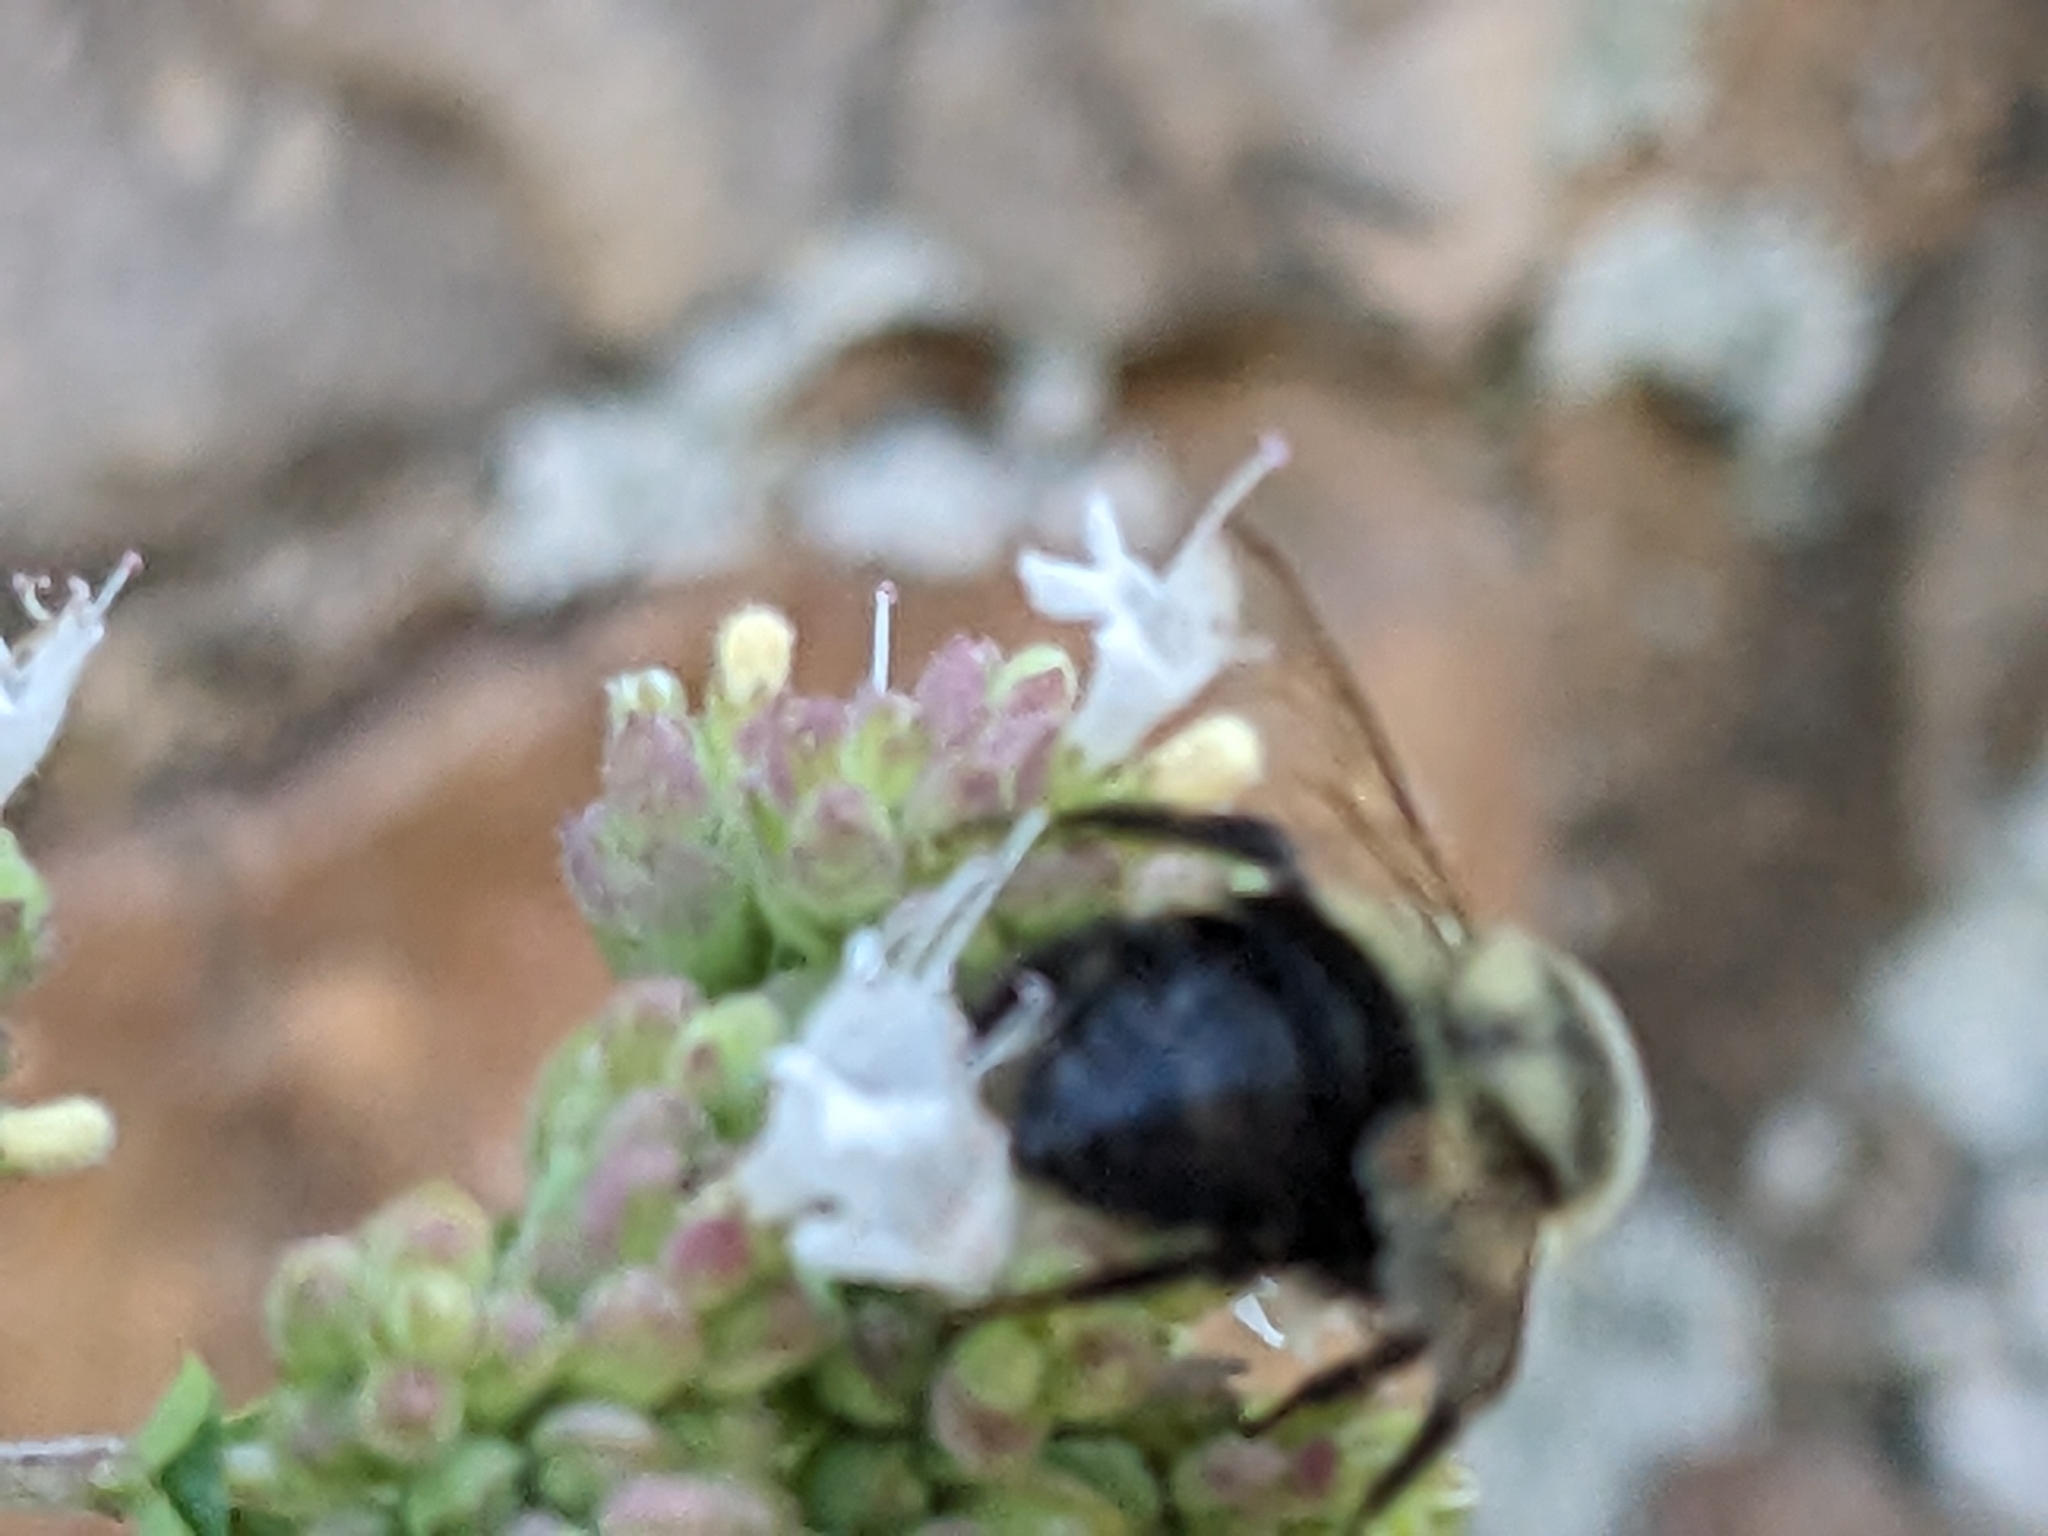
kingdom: Animalia
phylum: Arthropoda
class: Insecta
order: Hymenoptera
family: Apidae
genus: Bombus
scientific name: Bombus impatiens
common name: Common eastern bumble bee
